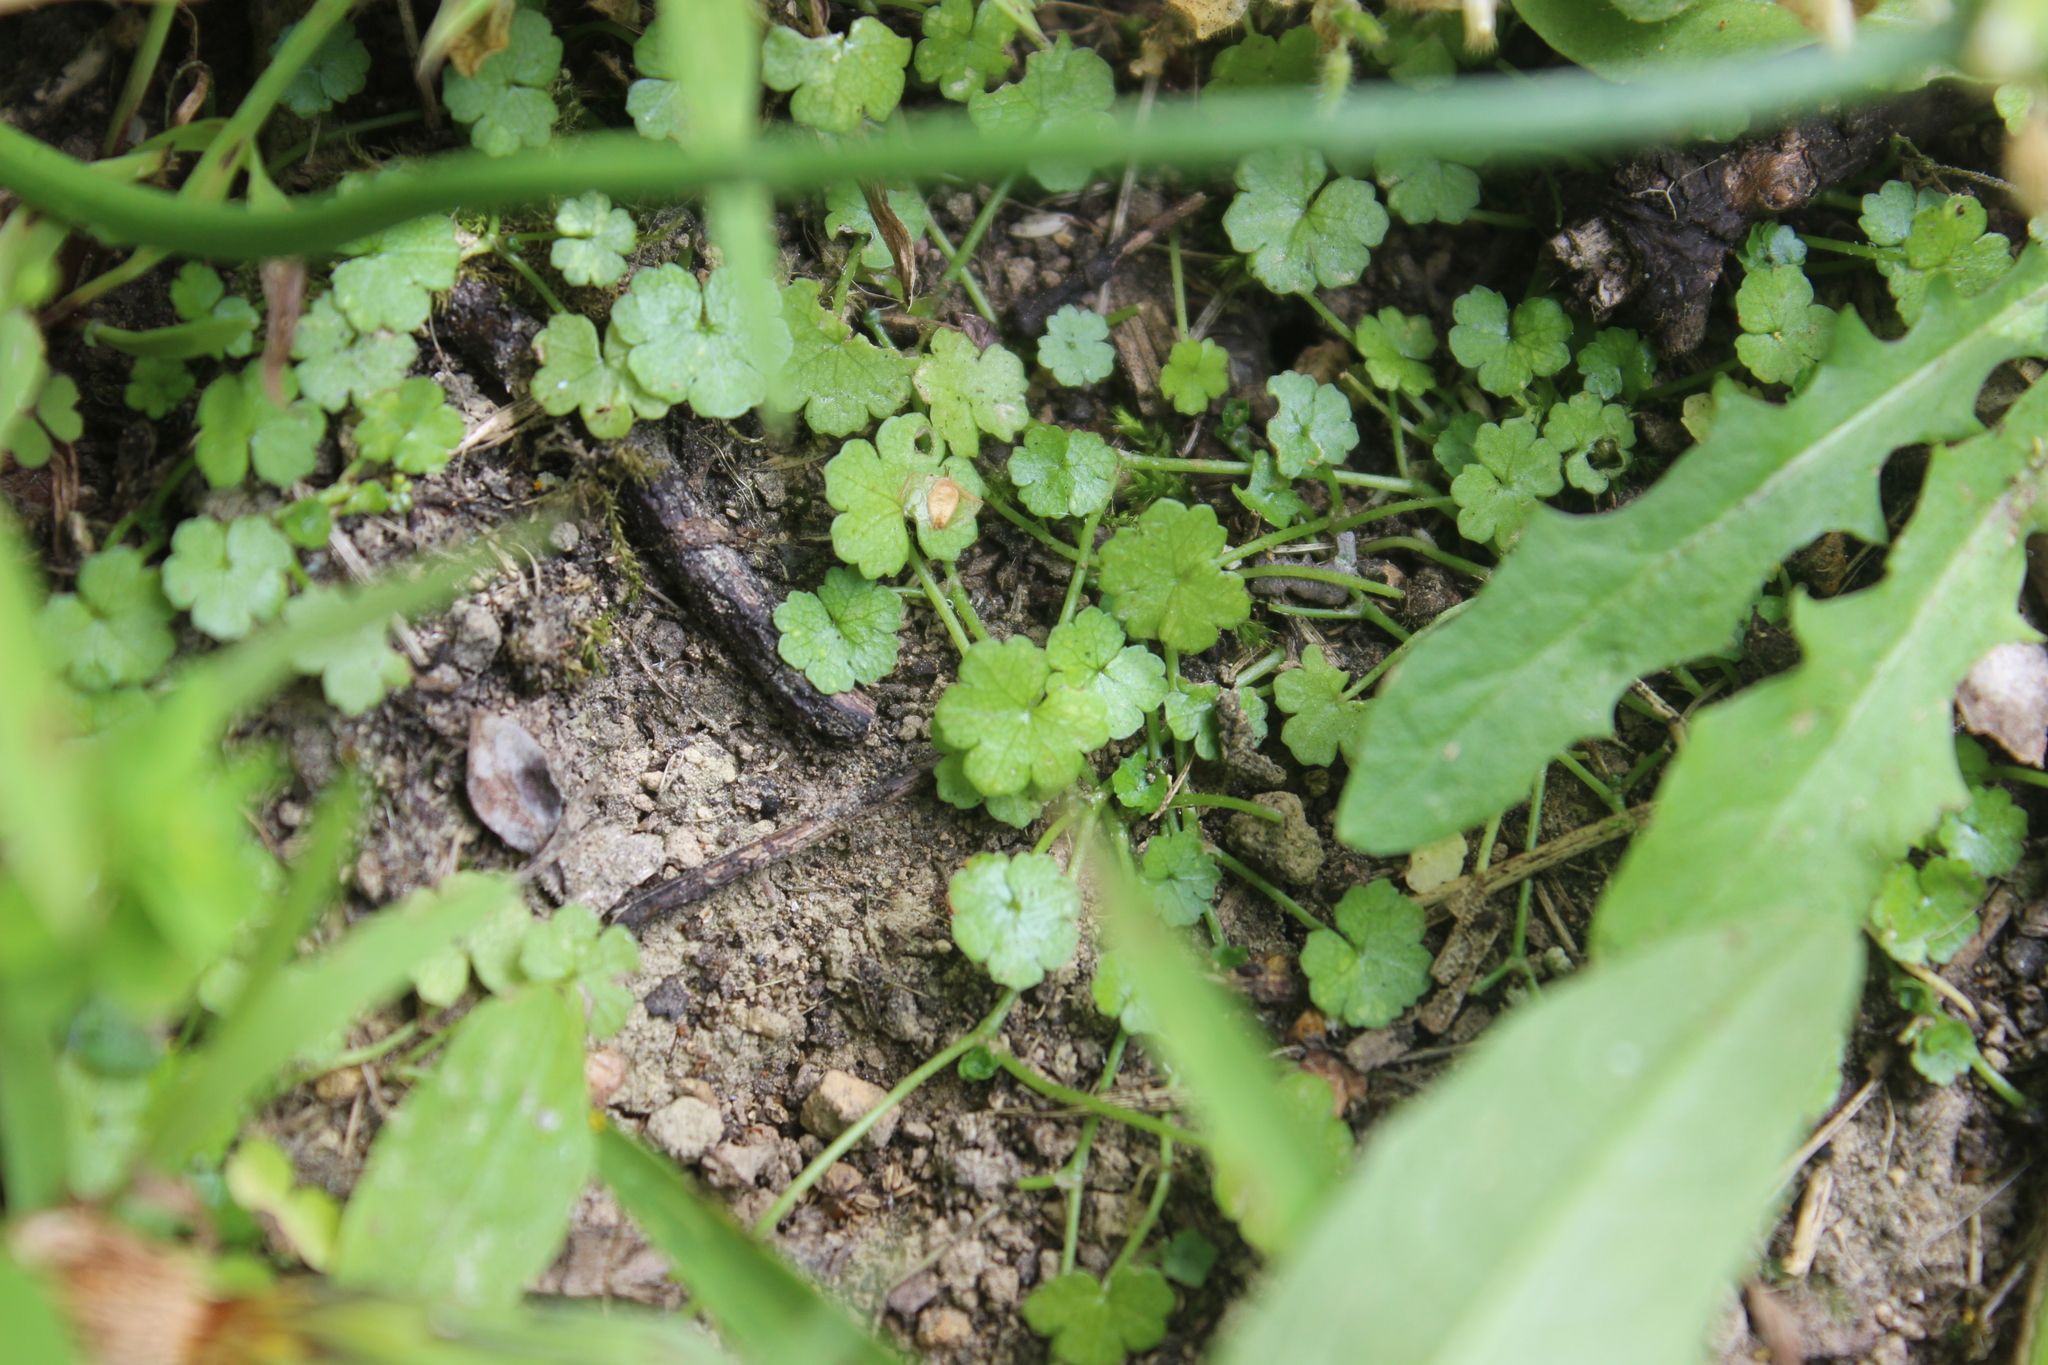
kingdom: Plantae
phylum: Tracheophyta
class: Magnoliopsida
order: Apiales
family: Araliaceae
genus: Hydrocotyle
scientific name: Hydrocotyle heteromeria
